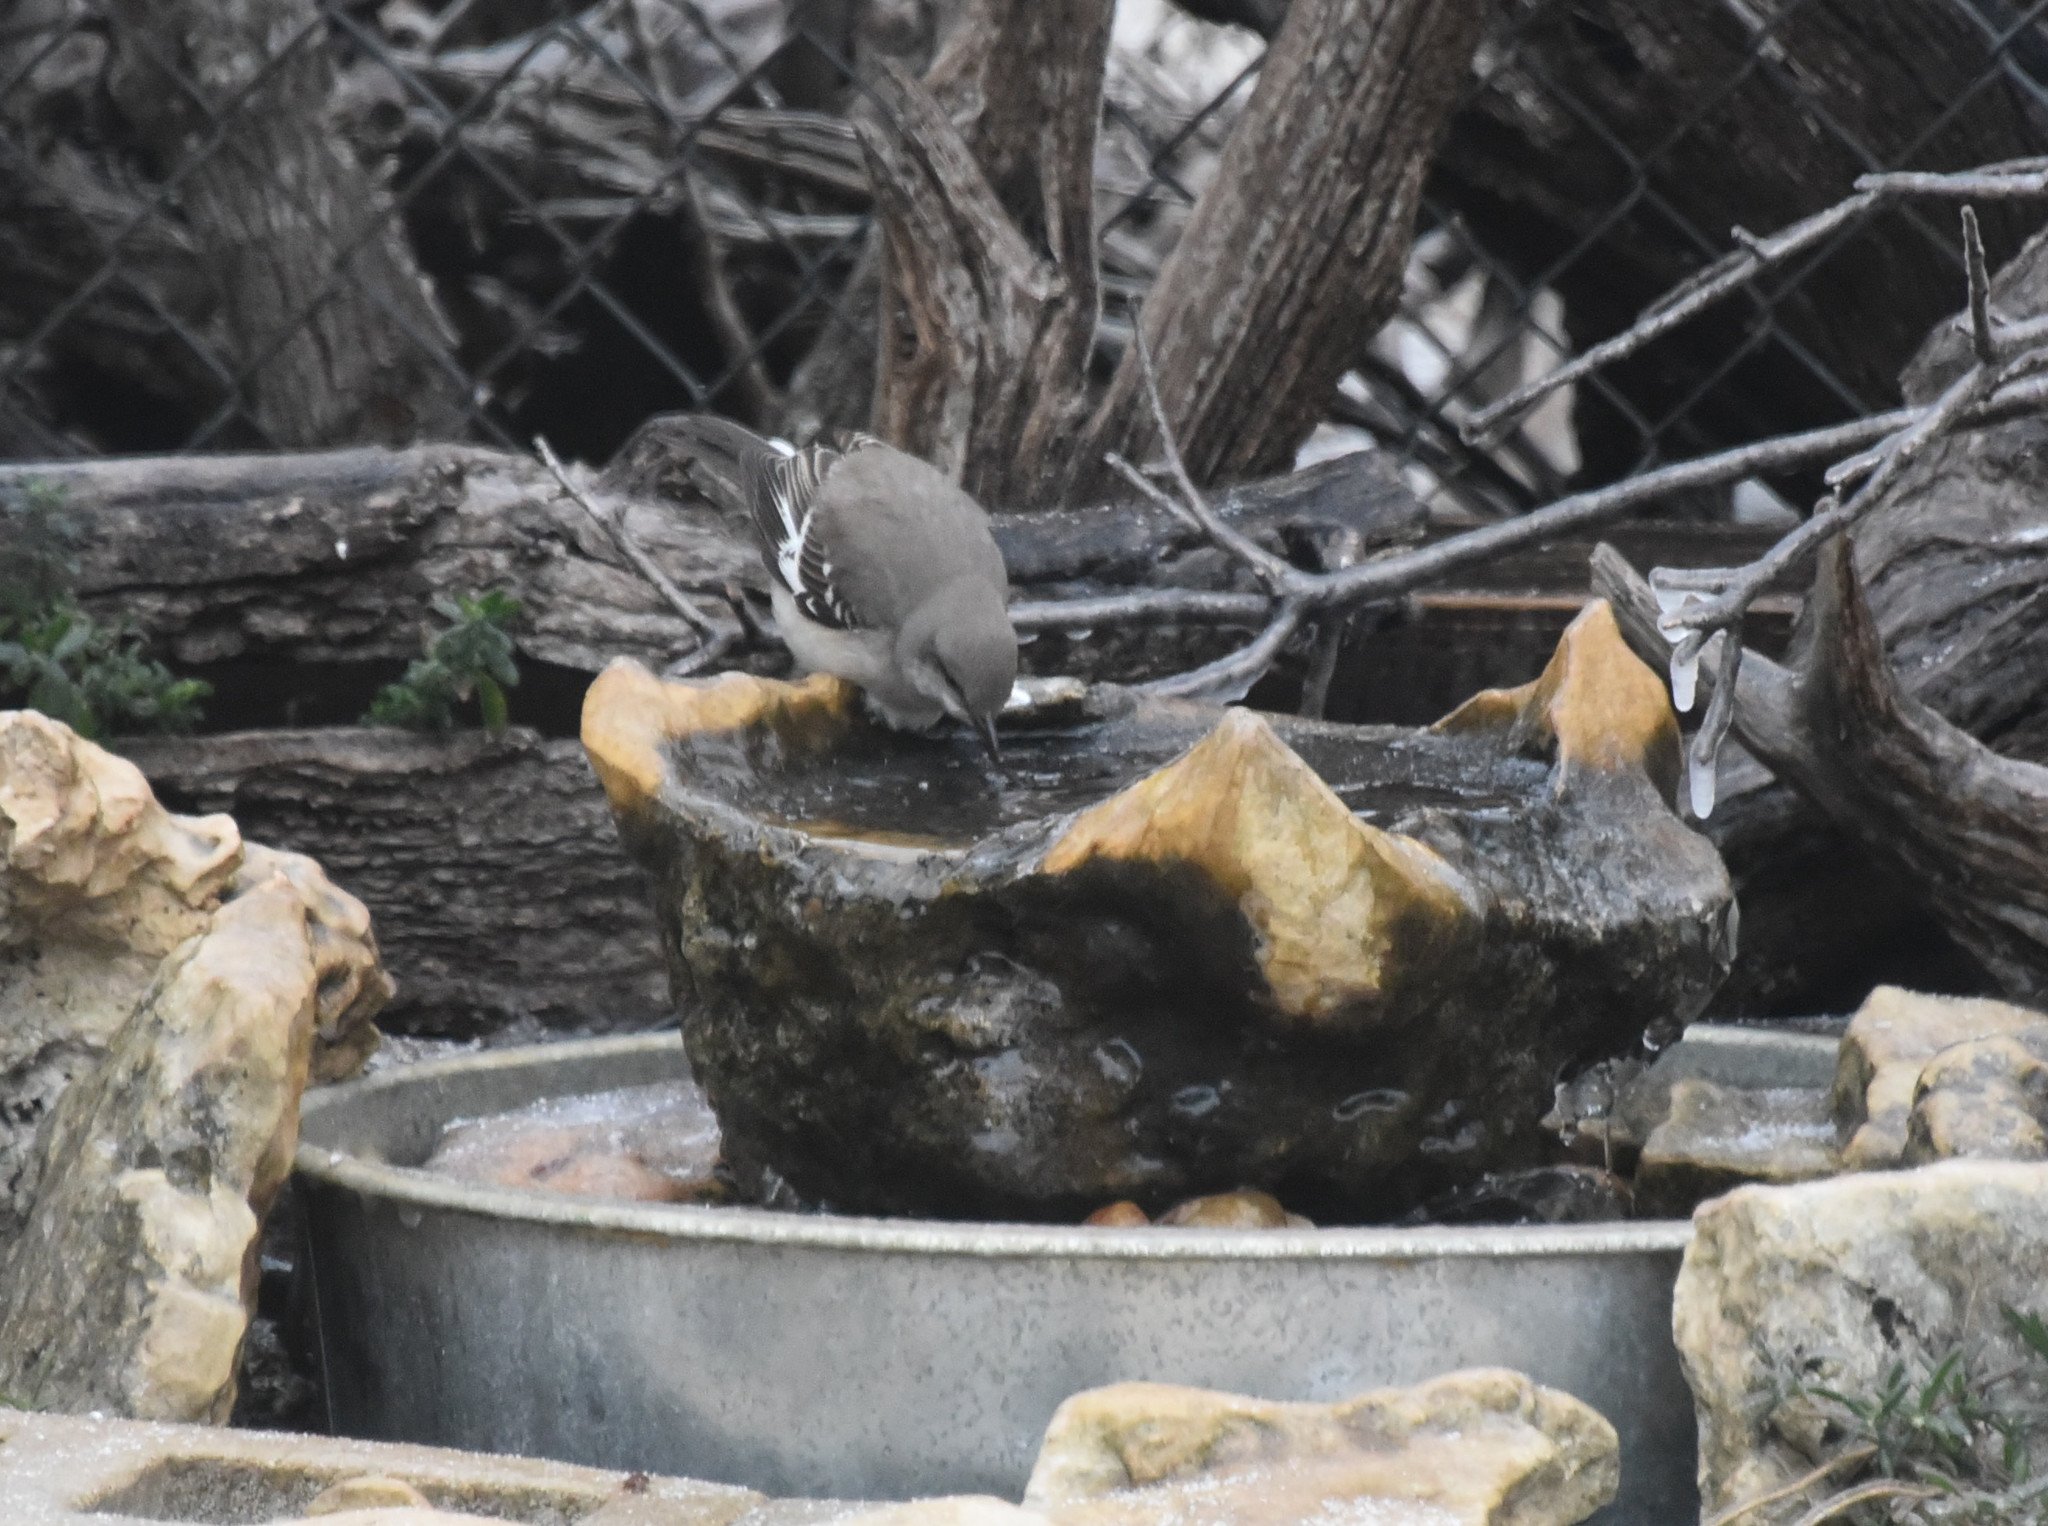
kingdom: Animalia
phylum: Chordata
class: Aves
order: Passeriformes
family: Mimidae
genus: Mimus
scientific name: Mimus polyglottos
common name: Northern mockingbird
